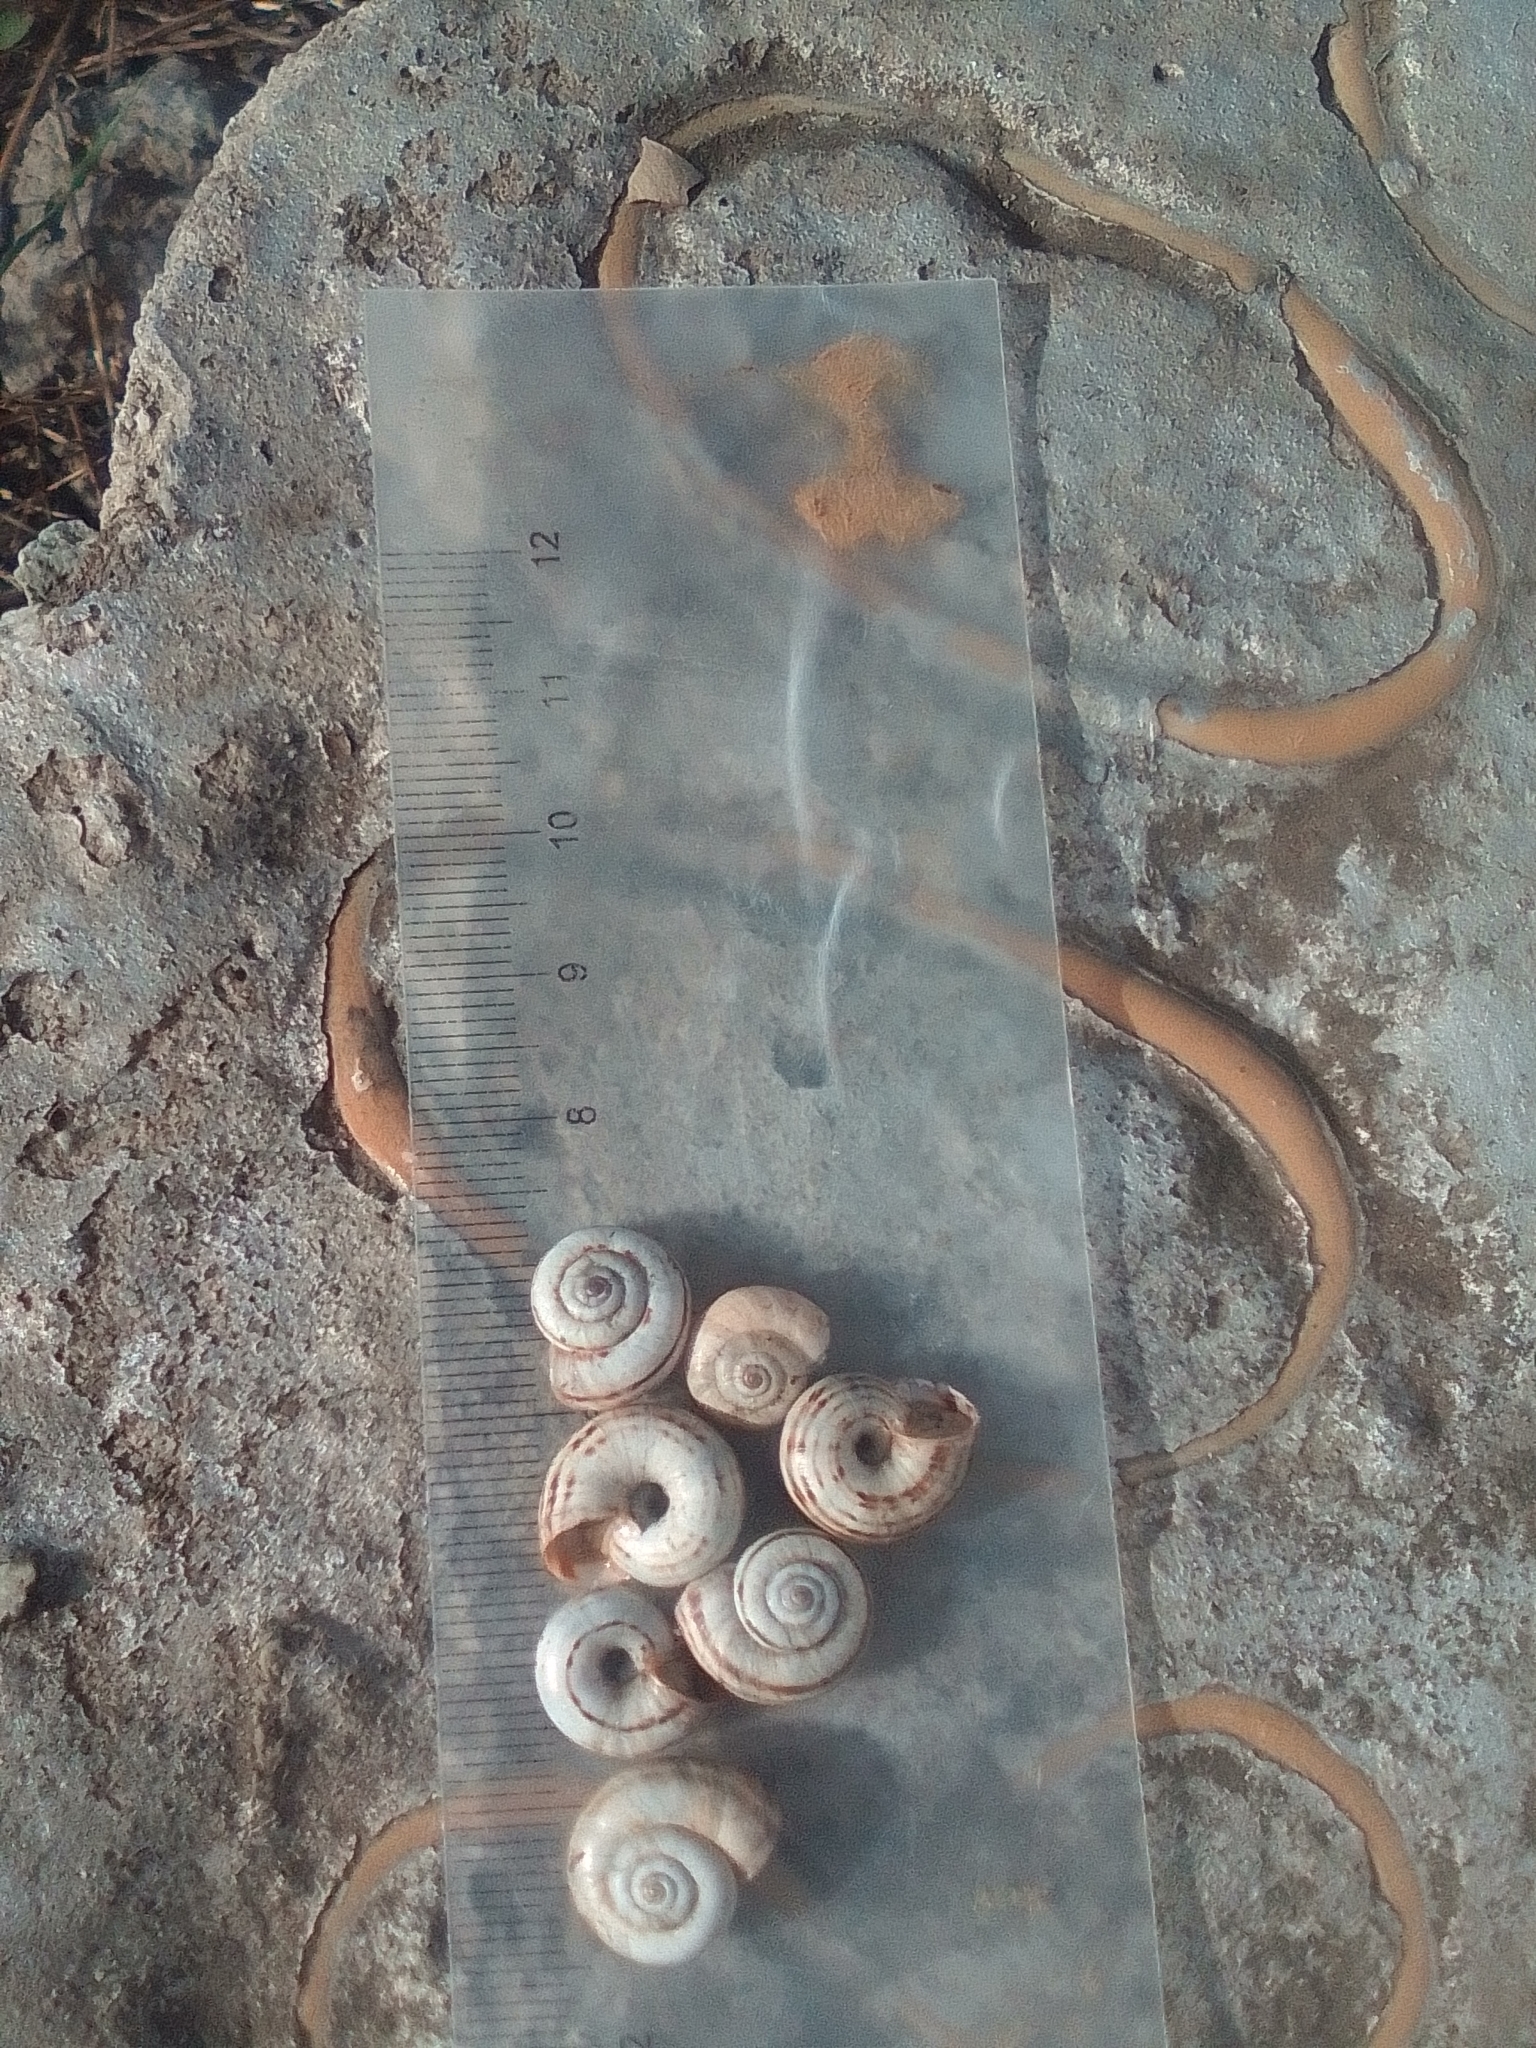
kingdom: Animalia
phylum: Mollusca
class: Gastropoda
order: Stylommatophora
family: Geomitridae
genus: Xeropicta
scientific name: Xeropicta derbentina
